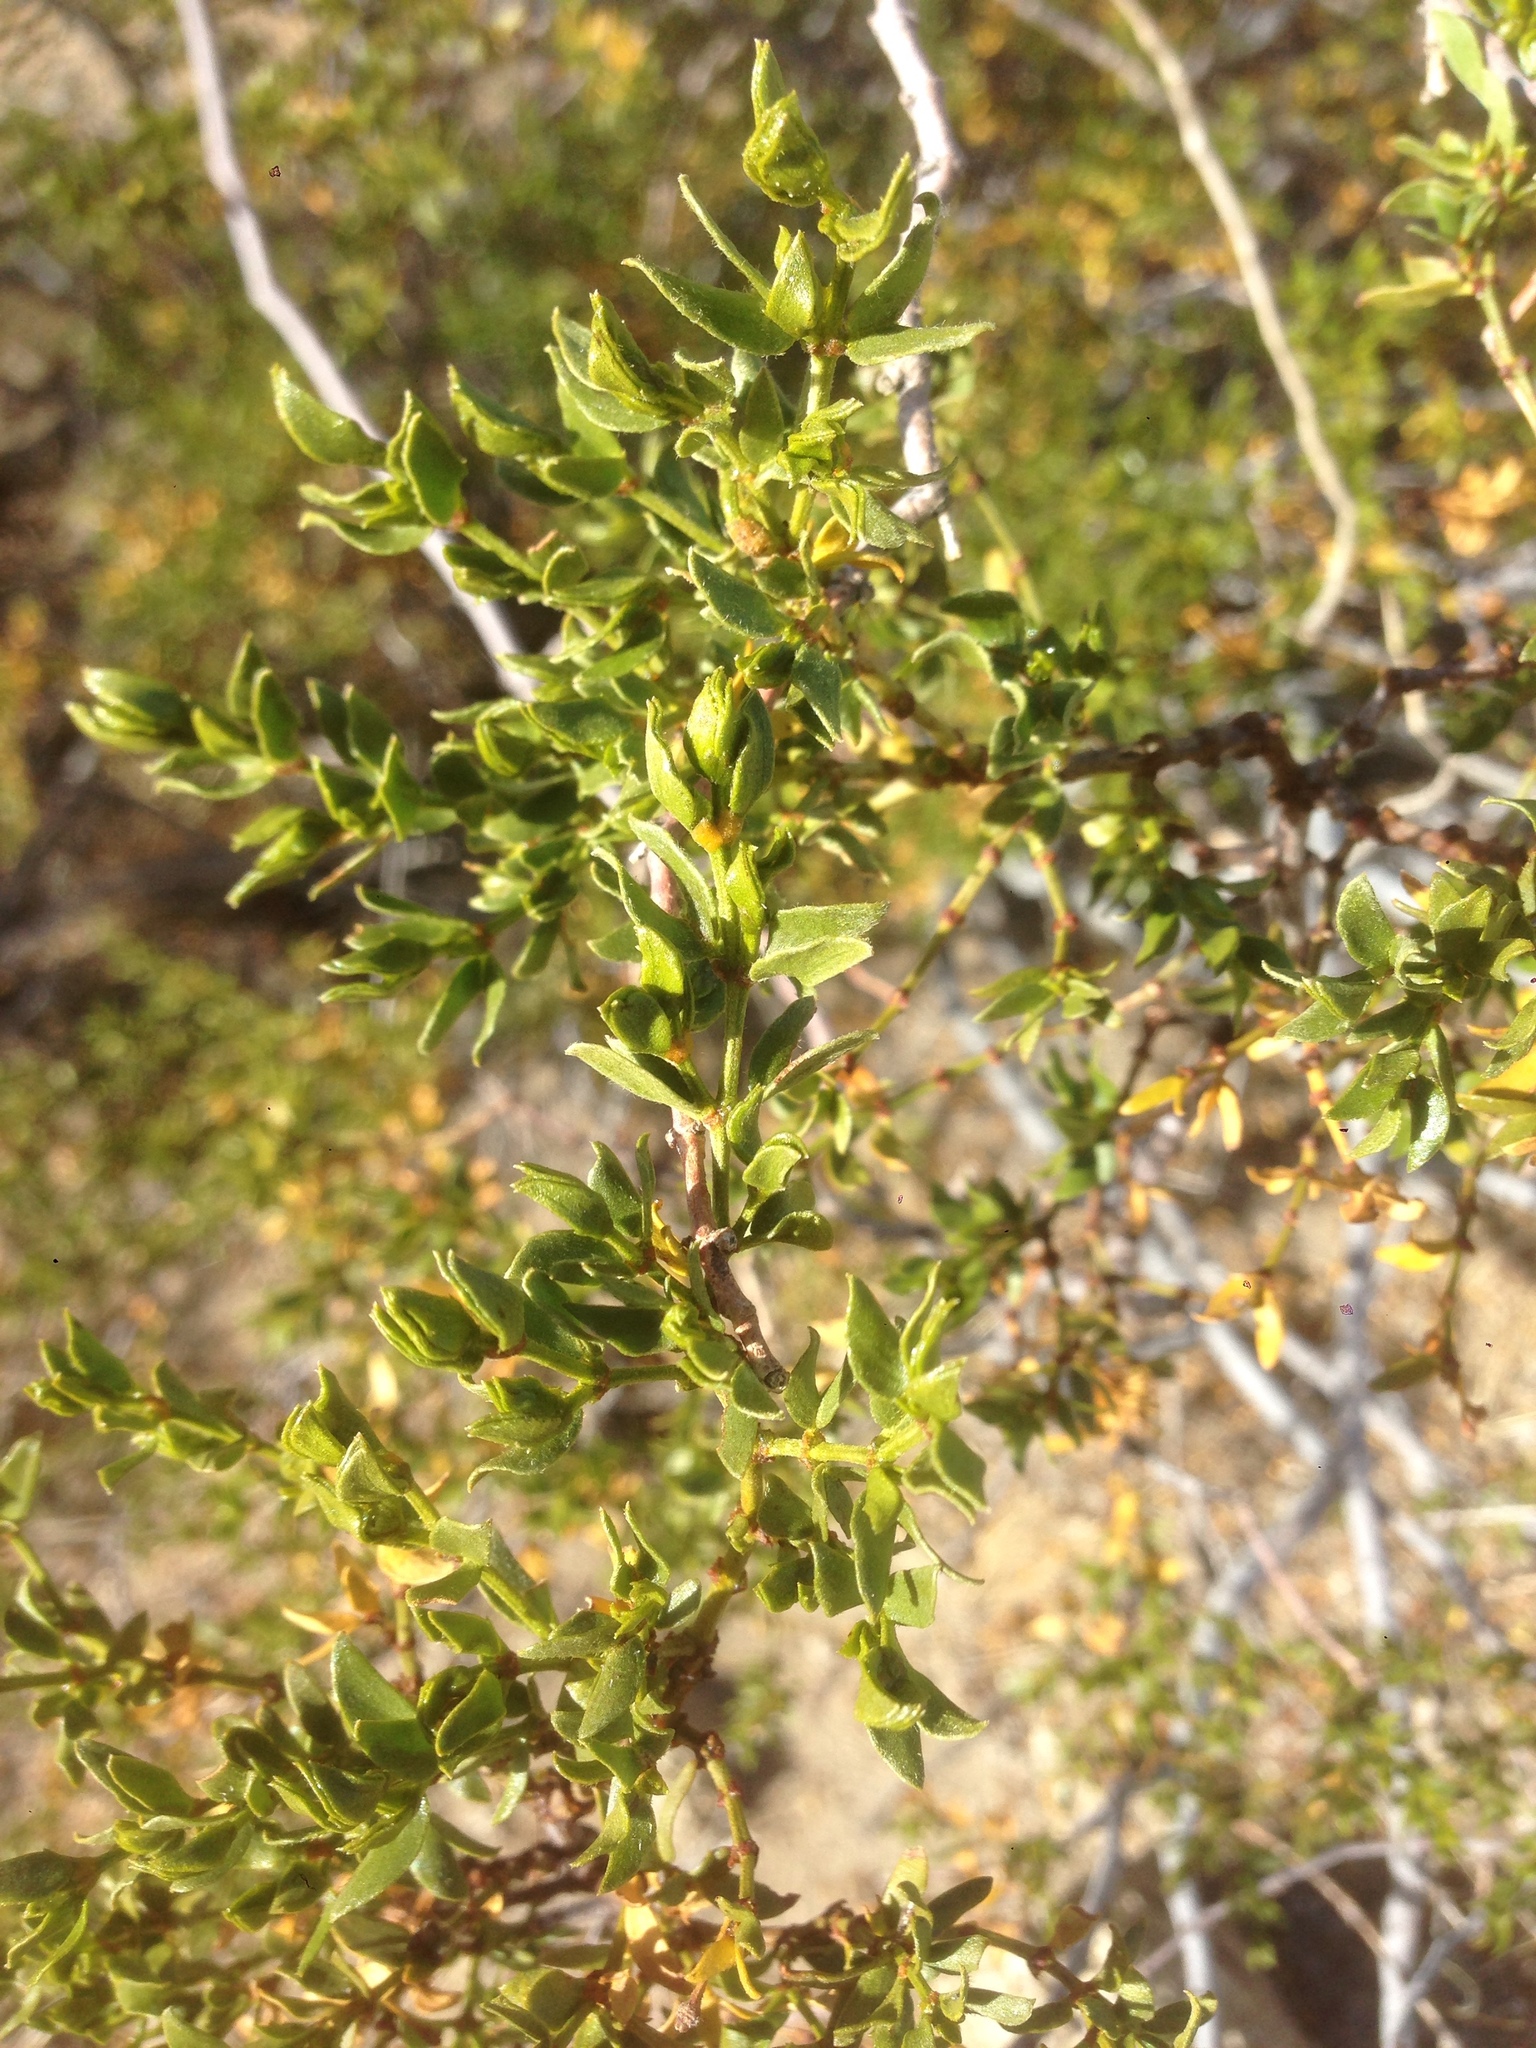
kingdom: Plantae
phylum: Tracheophyta
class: Magnoliopsida
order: Zygophyllales
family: Zygophyllaceae
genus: Larrea
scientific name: Larrea tridentata
